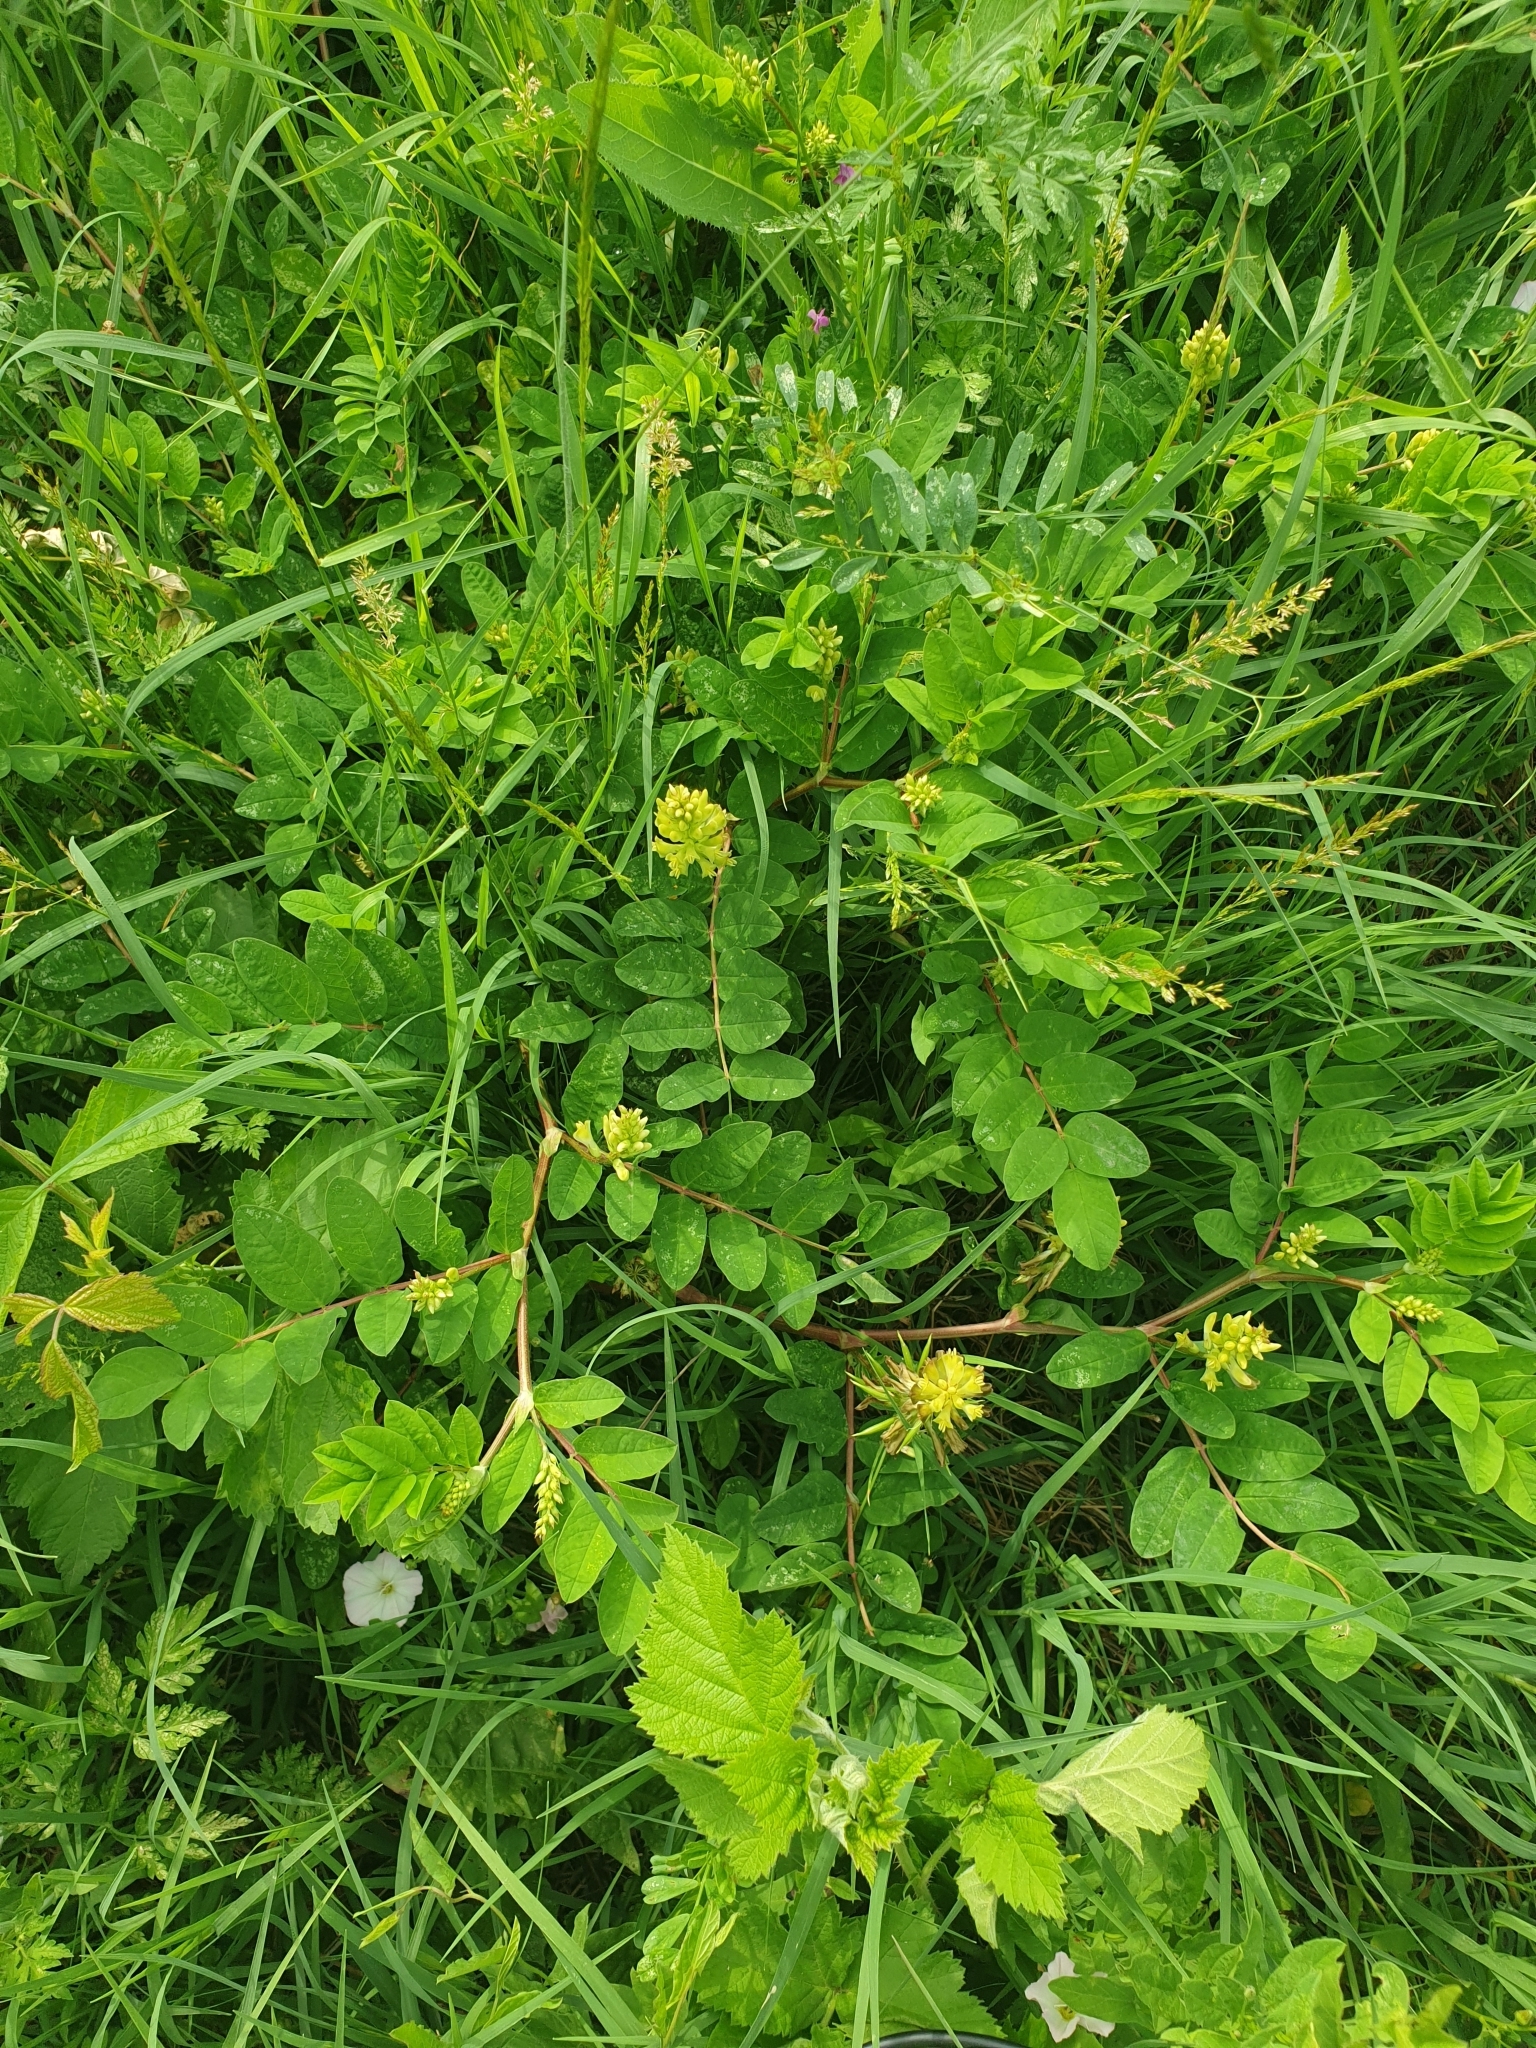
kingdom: Plantae
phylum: Tracheophyta
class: Magnoliopsida
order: Fabales
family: Fabaceae
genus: Astragalus
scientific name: Astragalus glycyphyllos
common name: Wild liquorice
